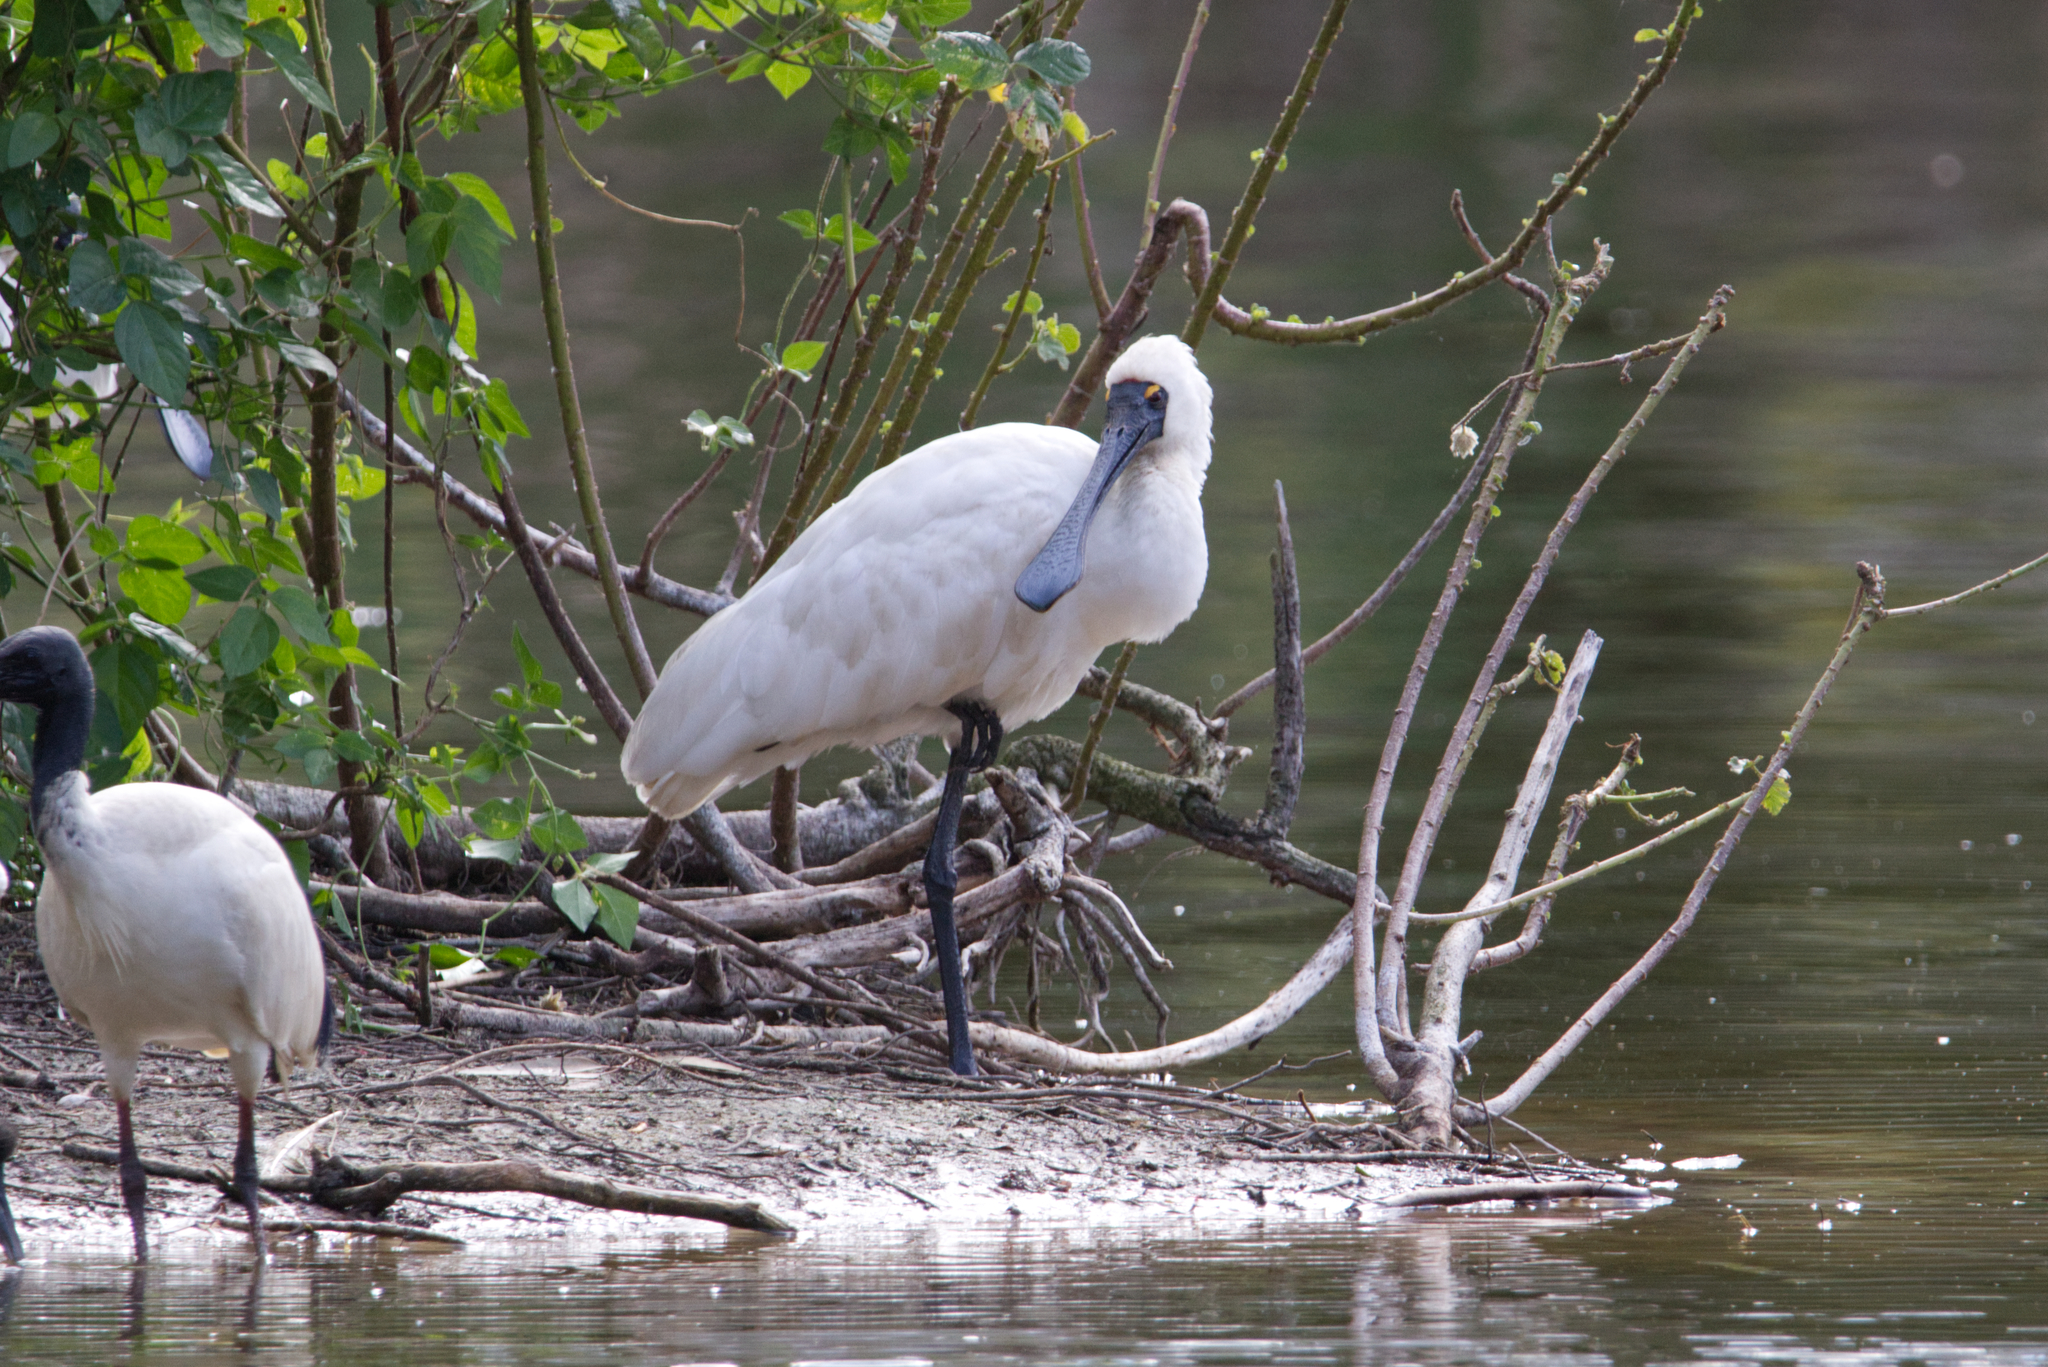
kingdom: Animalia
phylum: Chordata
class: Aves
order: Pelecaniformes
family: Threskiornithidae
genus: Platalea
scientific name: Platalea regia
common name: Royal spoonbill
